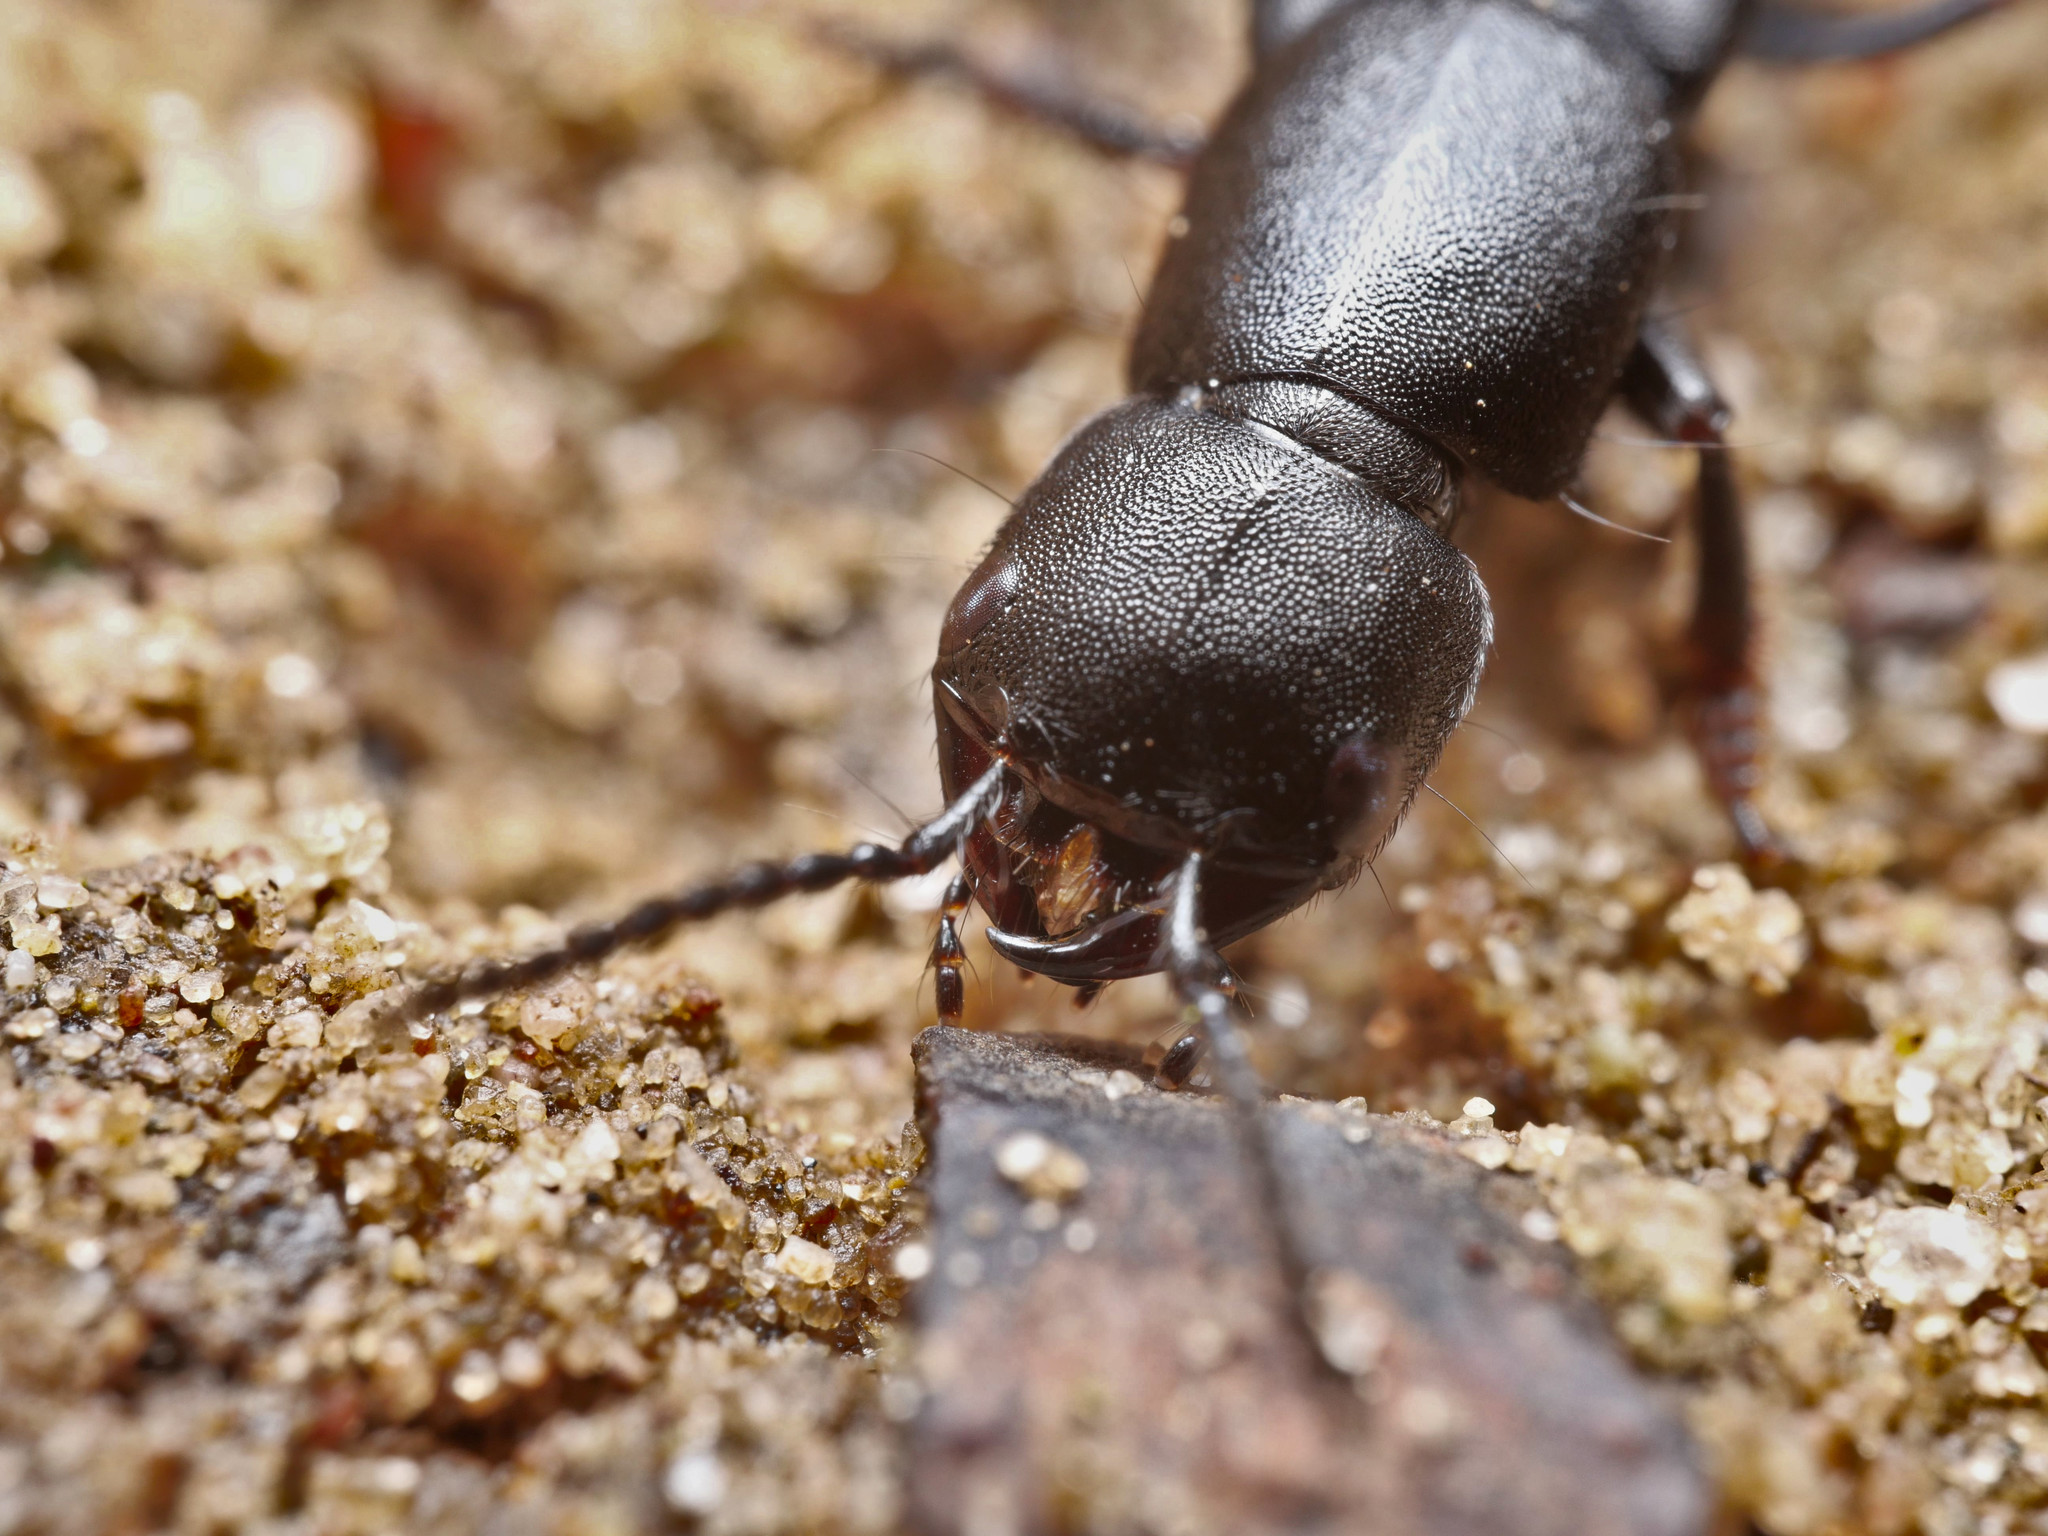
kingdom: Animalia
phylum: Arthropoda
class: Insecta
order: Coleoptera
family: Staphylinidae
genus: Ocypus
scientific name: Ocypus nitens
